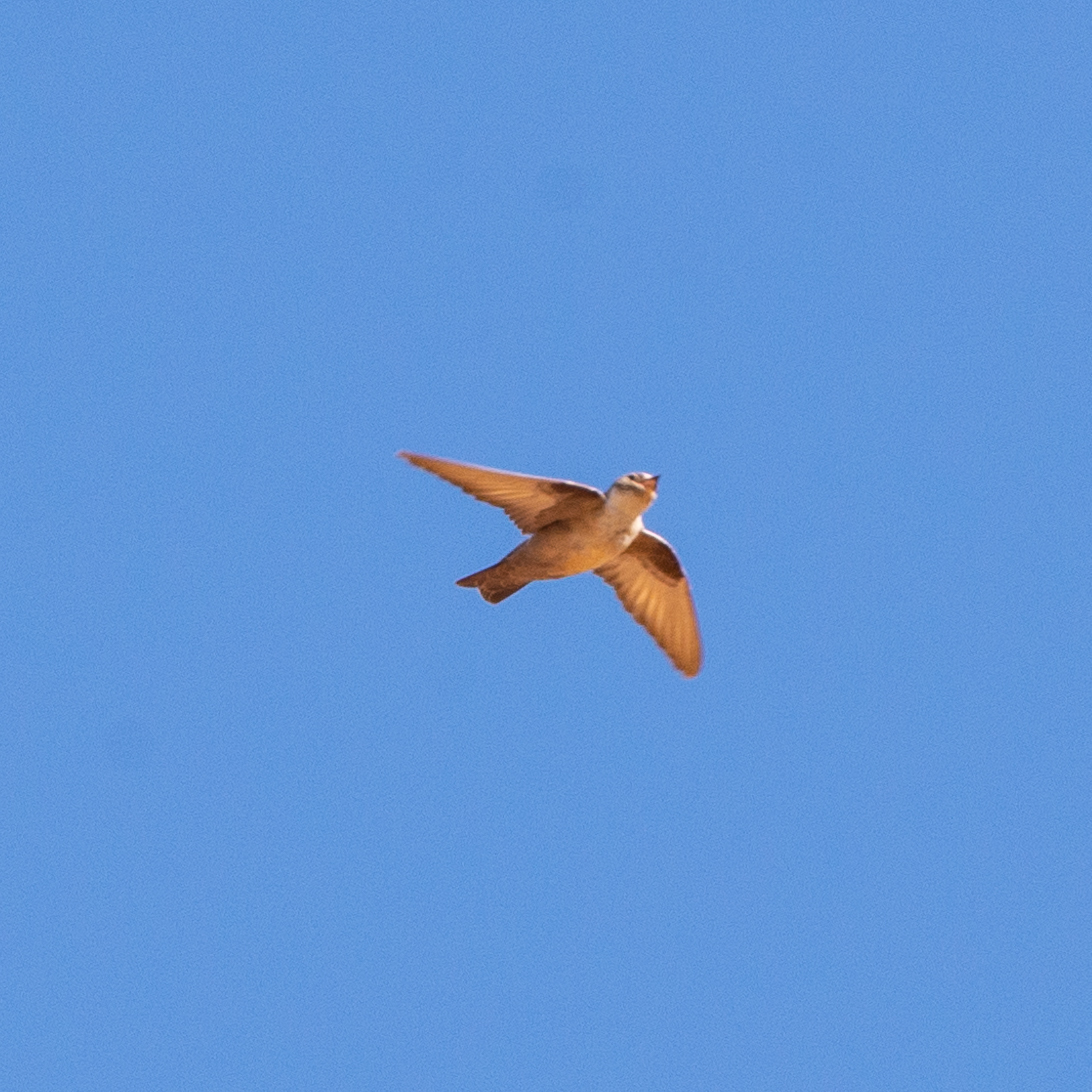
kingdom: Animalia
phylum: Chordata
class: Aves
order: Passeriformes
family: Hirundinidae
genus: Ptyonoprogne
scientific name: Ptyonoprogne rupestris
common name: Eurasian crag martin
